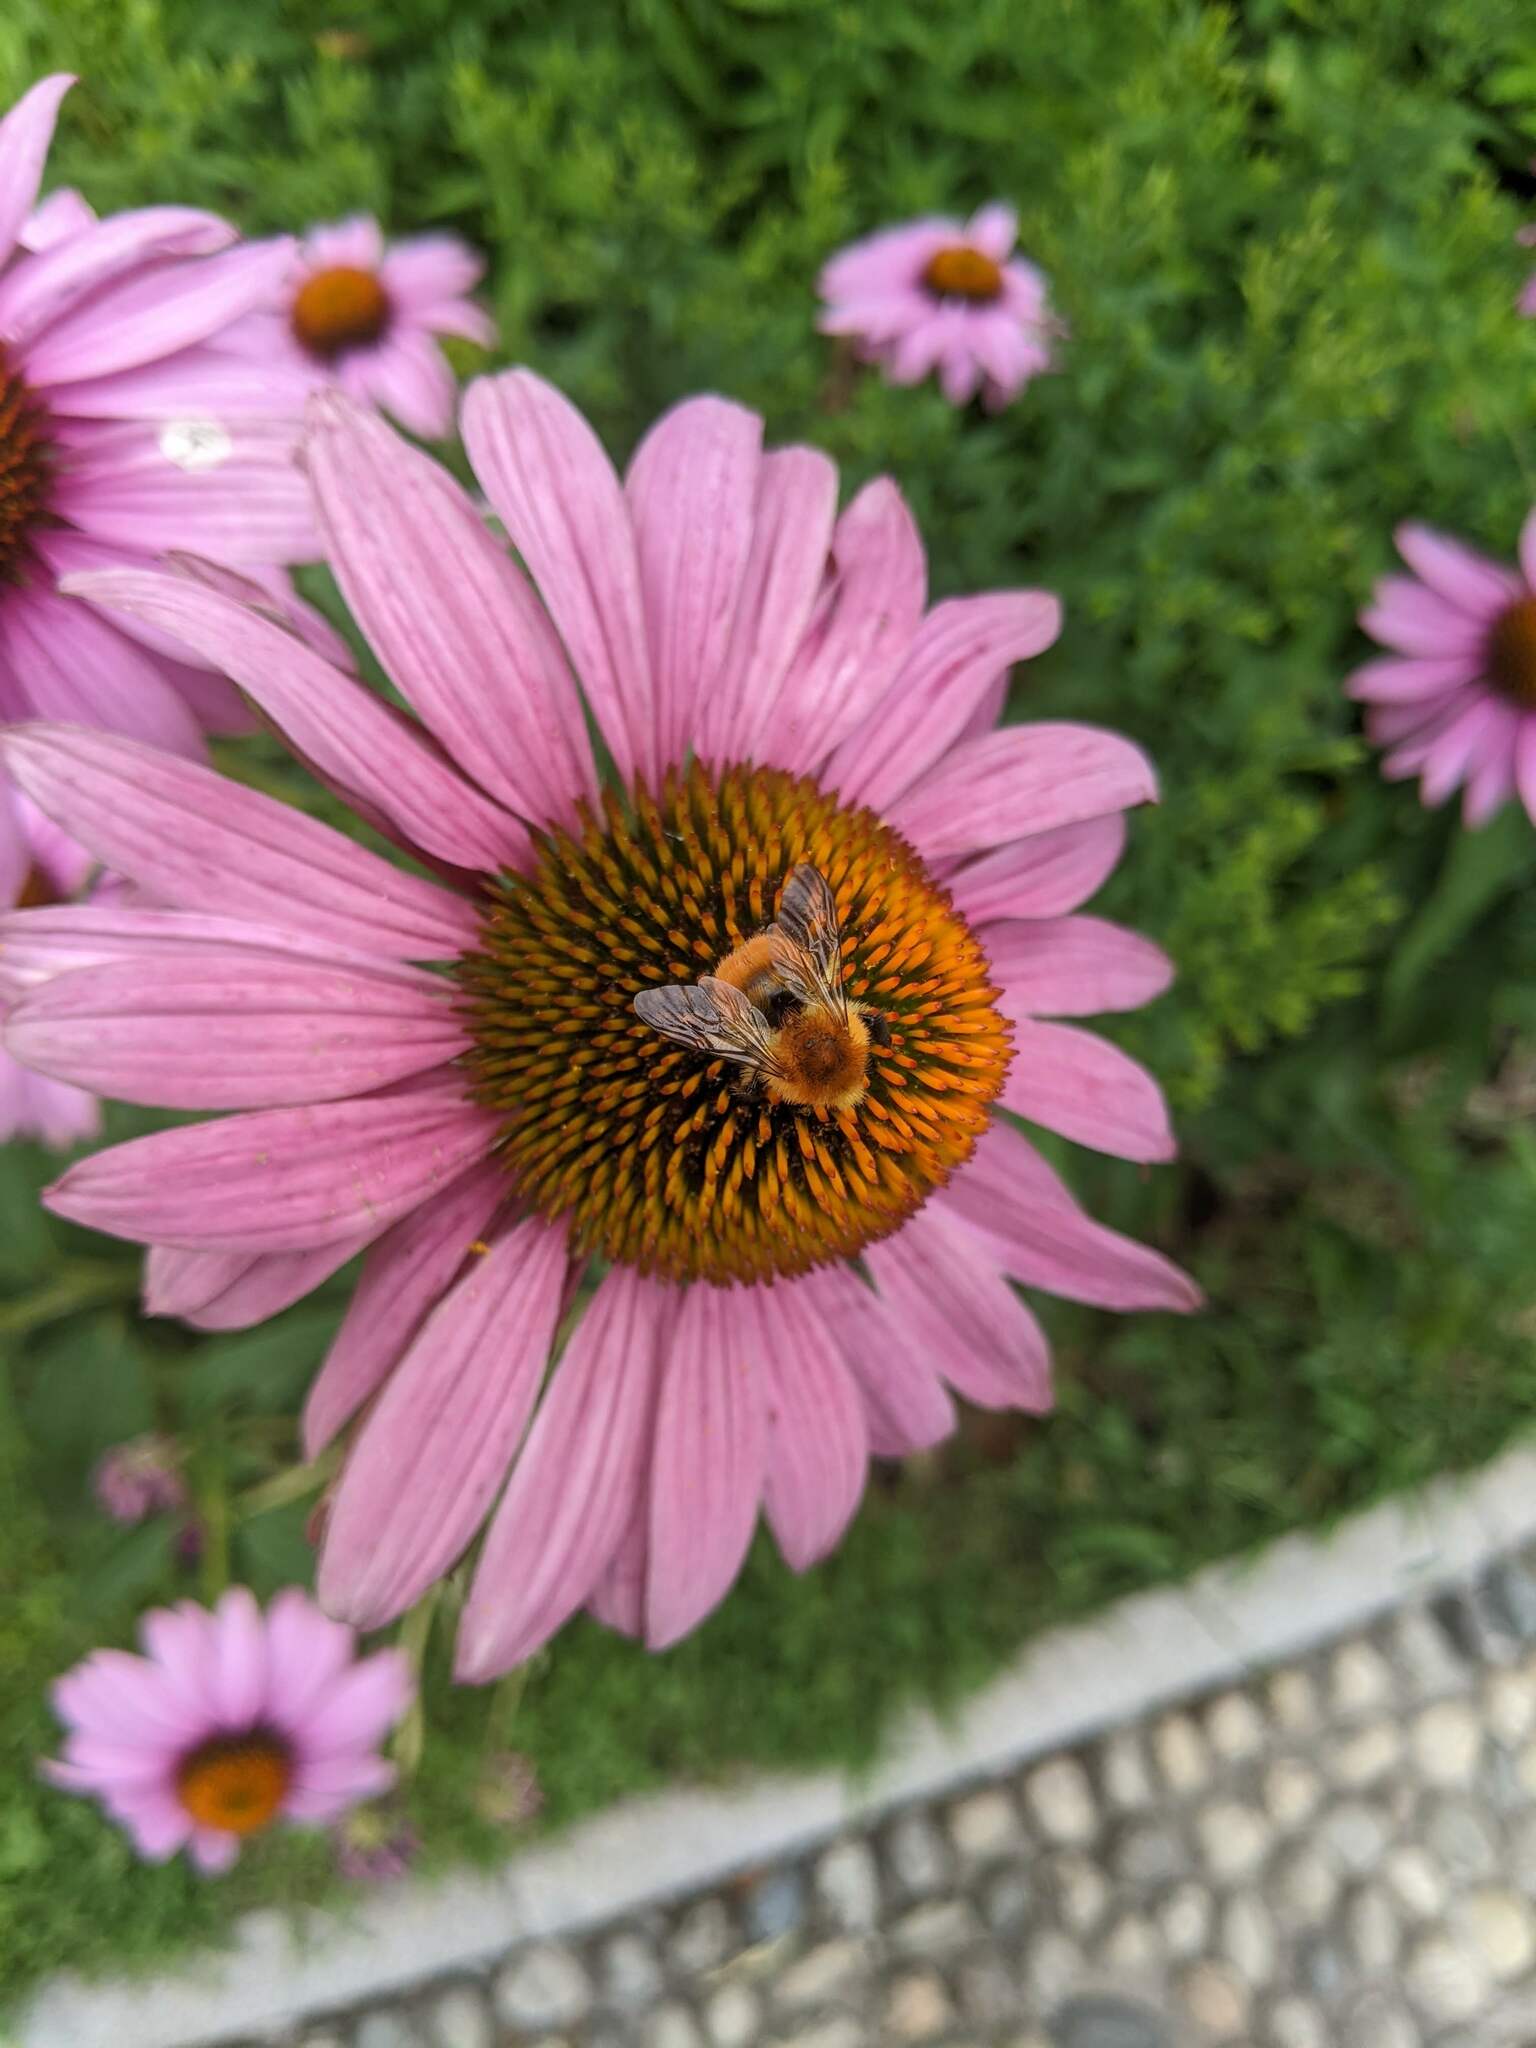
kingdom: Animalia
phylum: Arthropoda
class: Insecta
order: Hymenoptera
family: Apidae
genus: Bombus
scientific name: Bombus pascuorum
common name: Common carder bee
